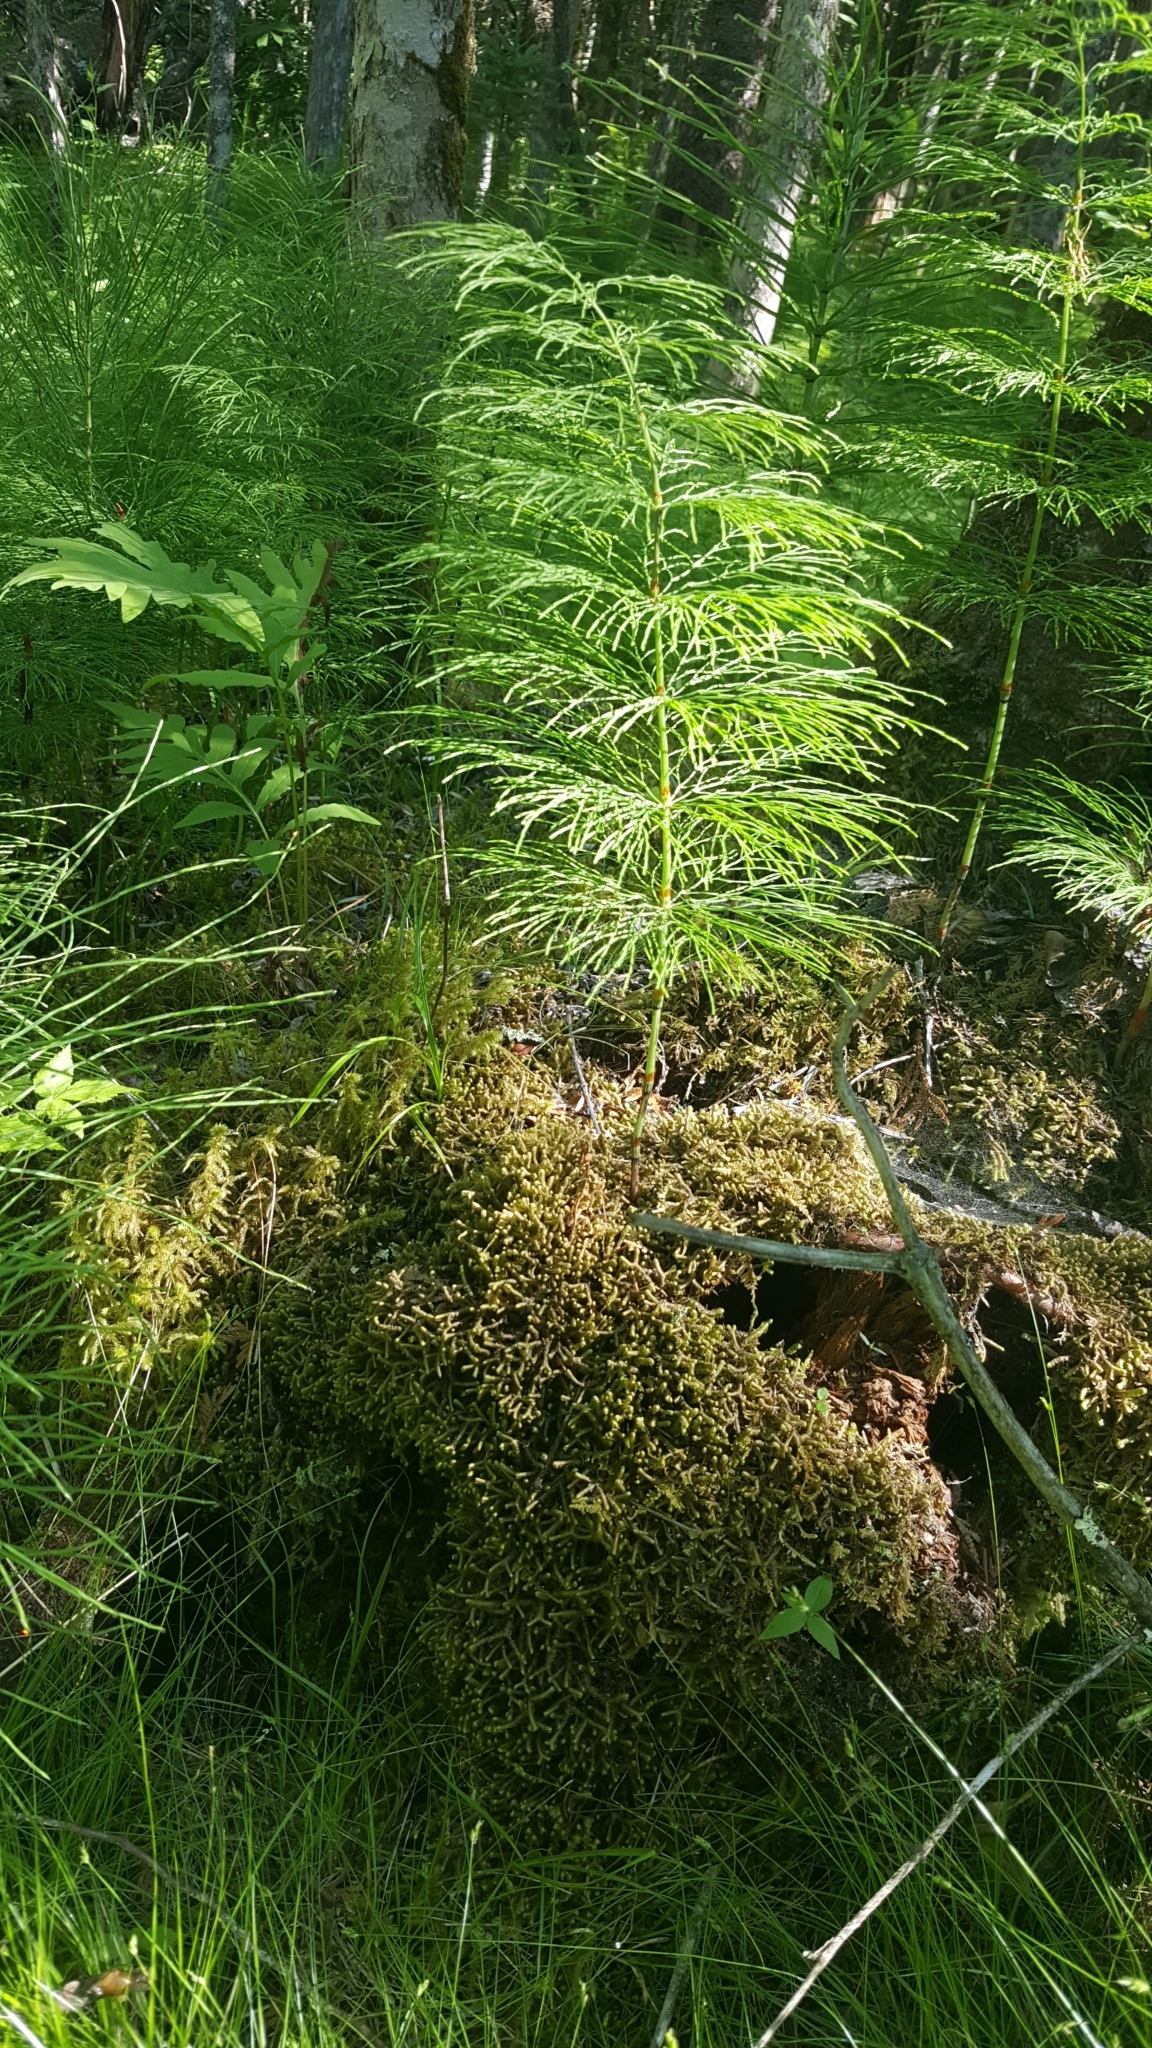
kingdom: Plantae
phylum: Tracheophyta
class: Polypodiopsida
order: Equisetales
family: Equisetaceae
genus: Equisetum
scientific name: Equisetum sylvaticum
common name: Wood horsetail
